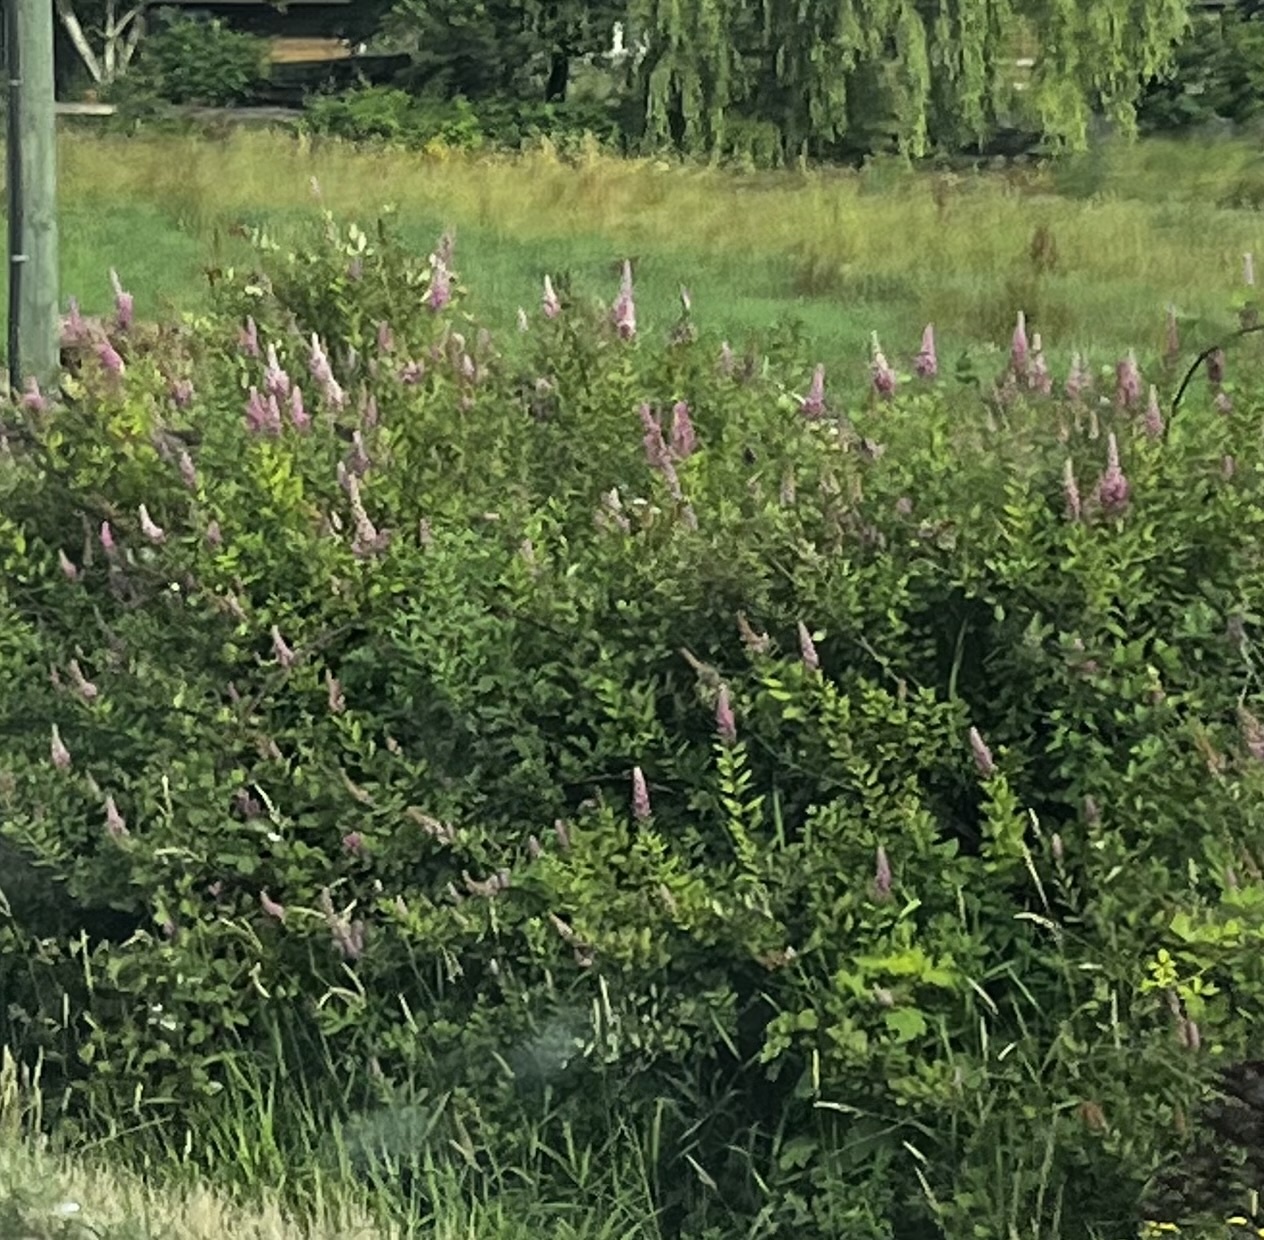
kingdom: Plantae
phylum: Tracheophyta
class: Magnoliopsida
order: Rosales
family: Rosaceae
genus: Spiraea
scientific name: Spiraea douglasii
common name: Steeplebush
